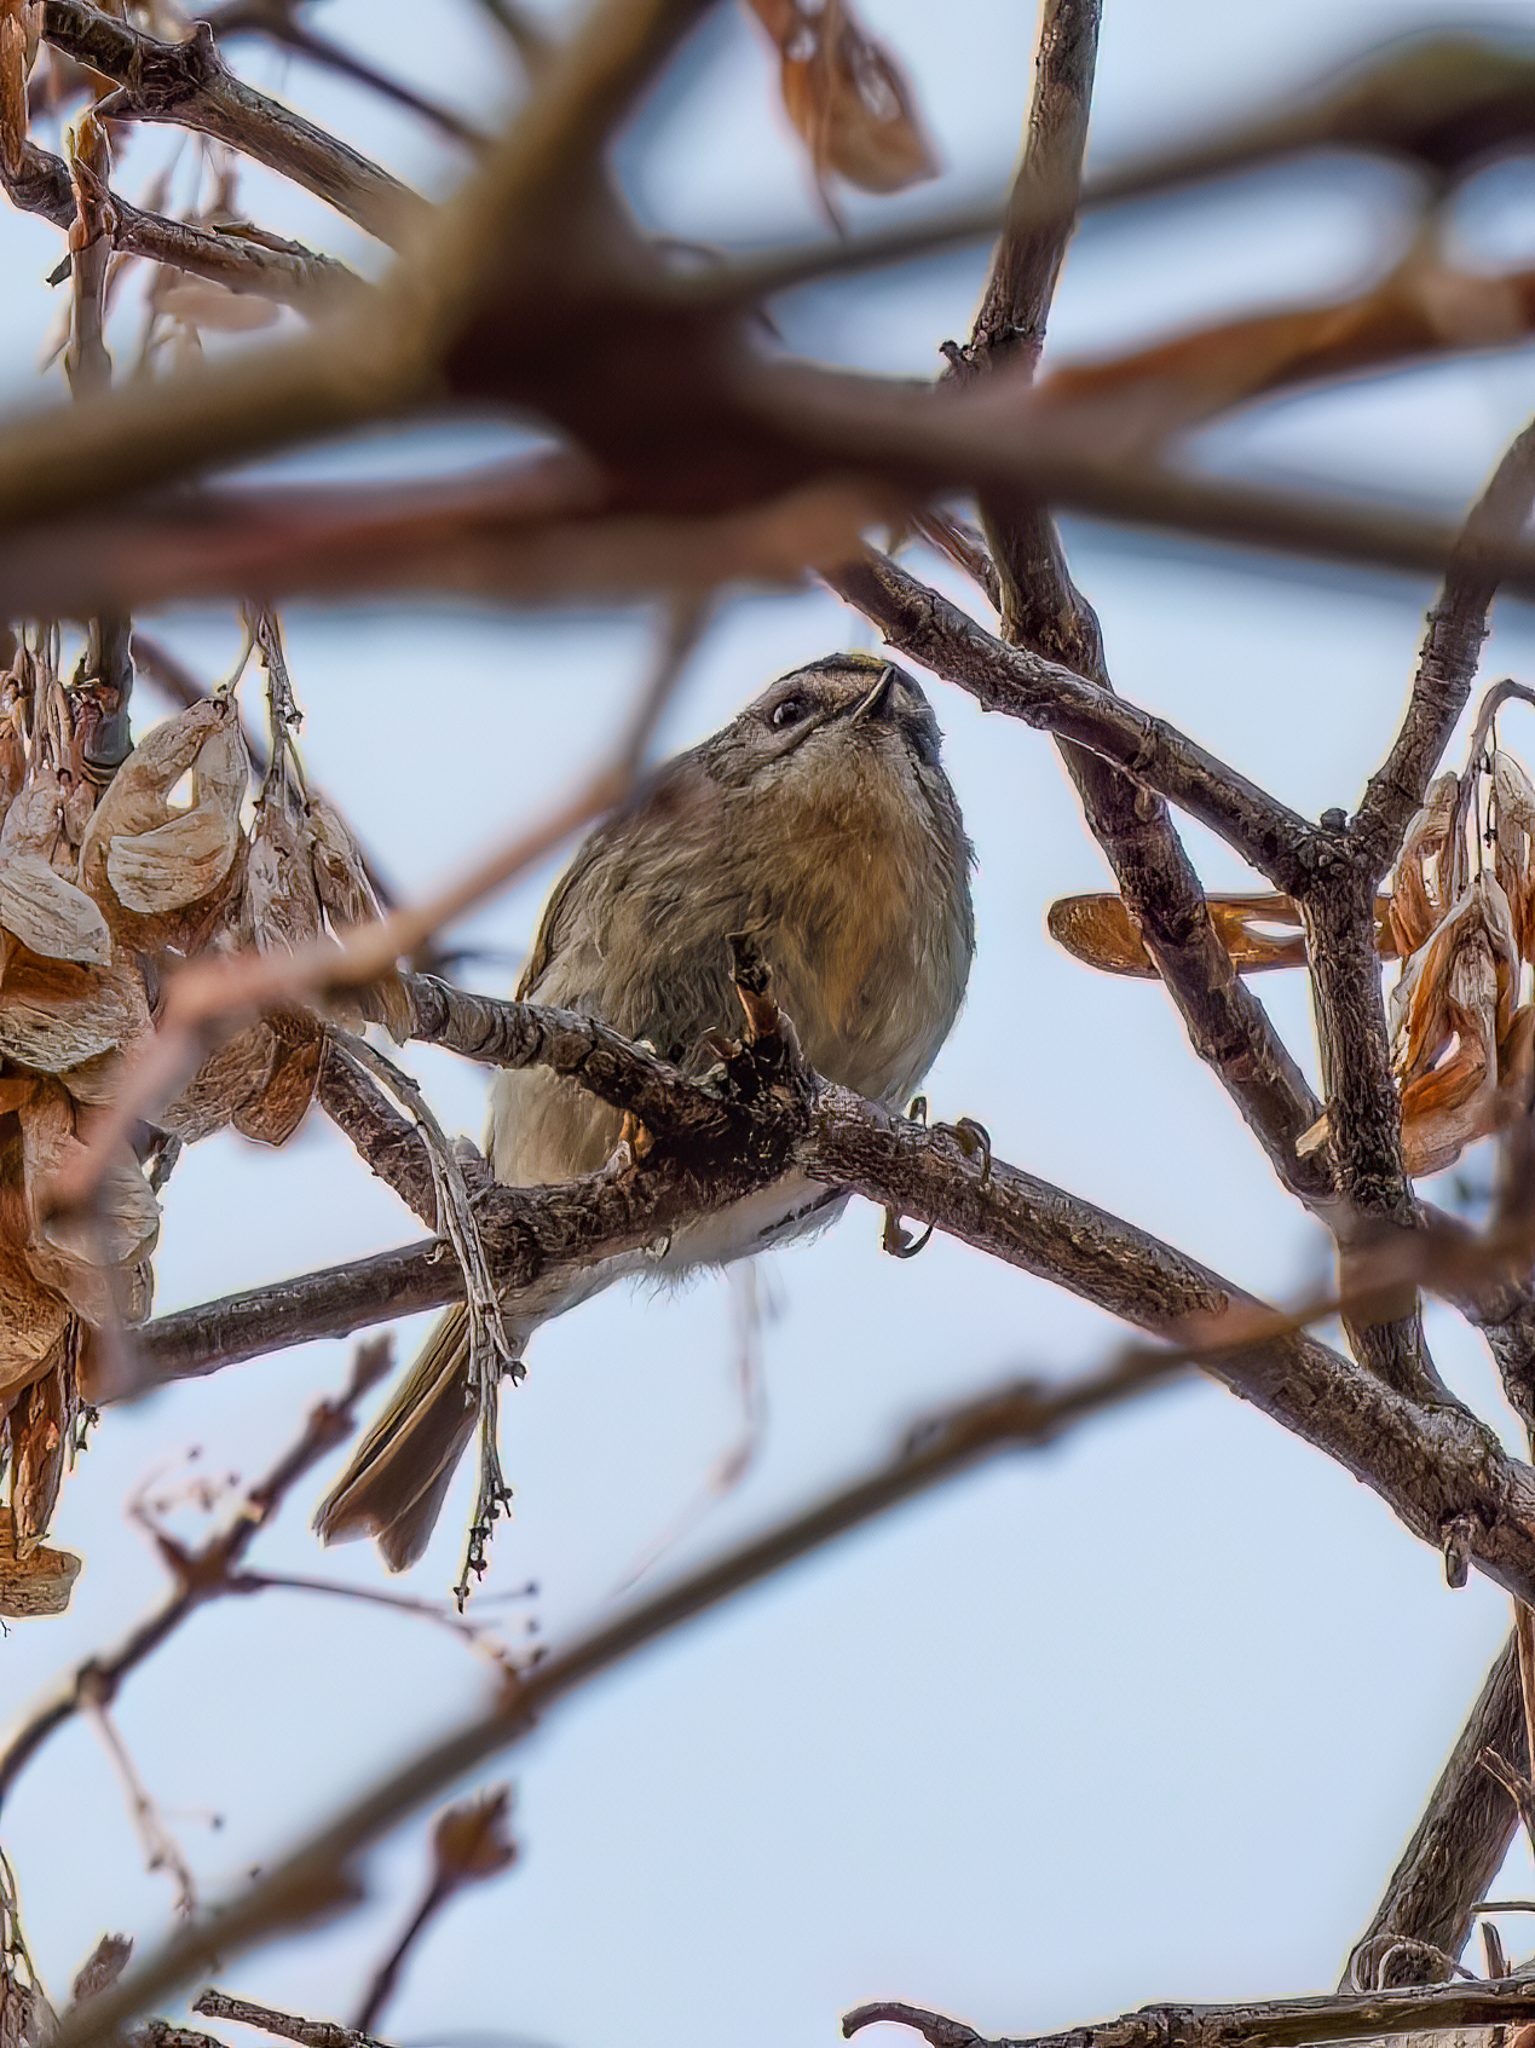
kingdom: Animalia
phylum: Chordata
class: Aves
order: Passeriformes
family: Regulidae
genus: Regulus
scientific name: Regulus satrapa
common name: Golden-crowned kinglet
